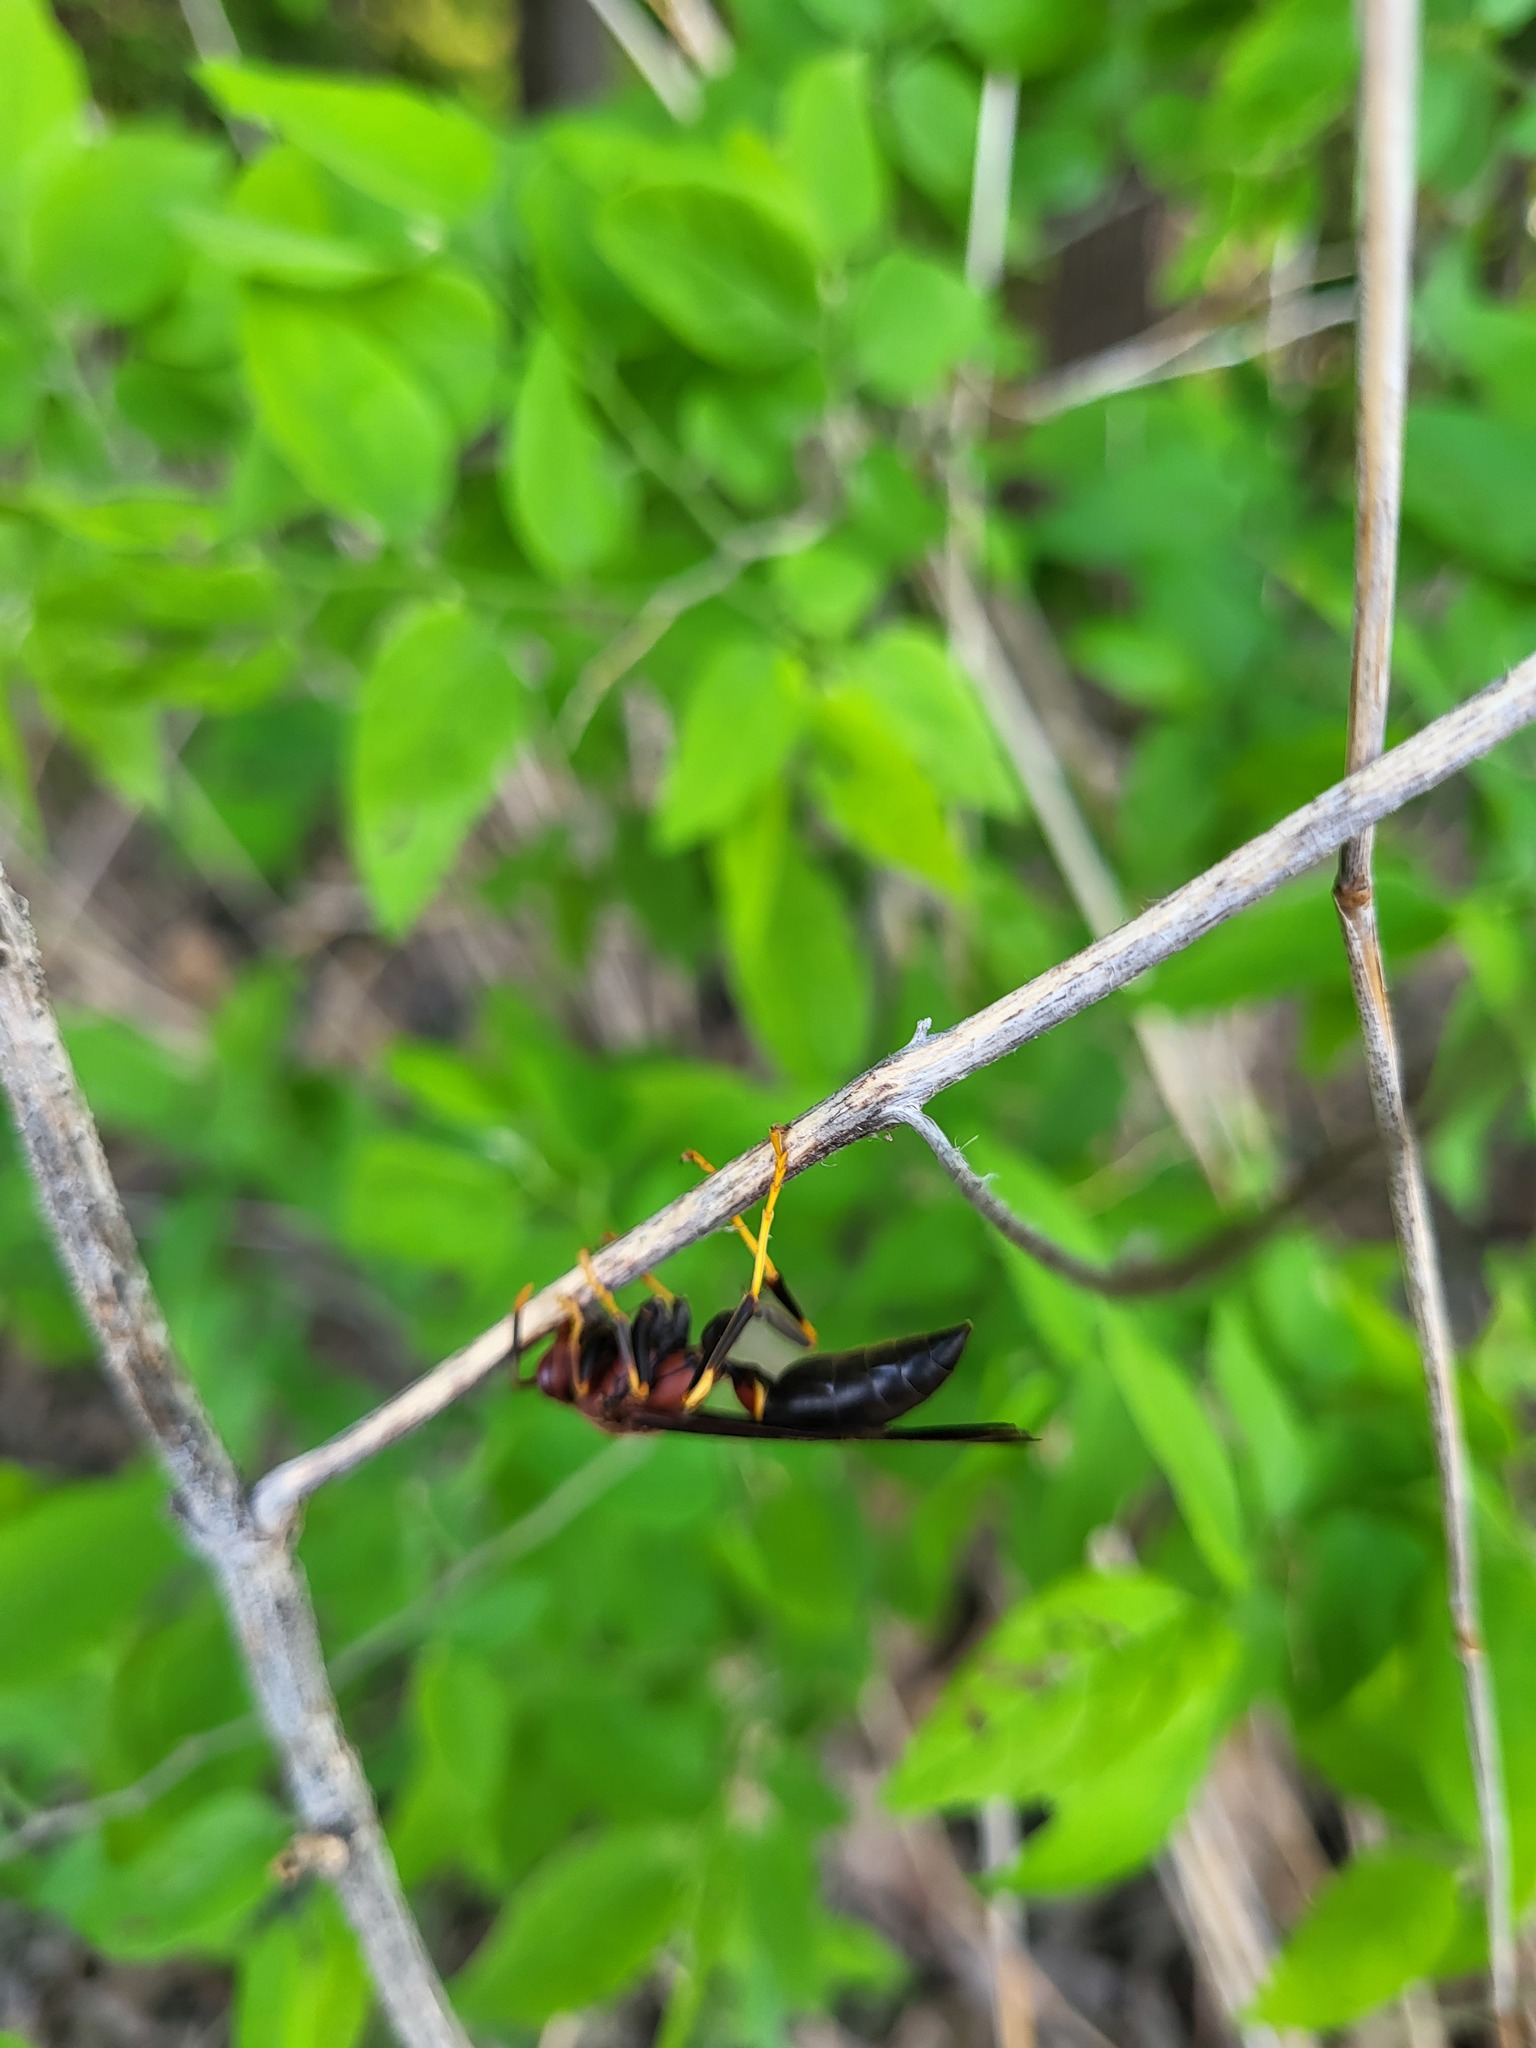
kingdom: Animalia
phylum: Arthropoda
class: Insecta
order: Hymenoptera
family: Eumenidae
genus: Polistes
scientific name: Polistes annularis
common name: Ringed paper wasp
